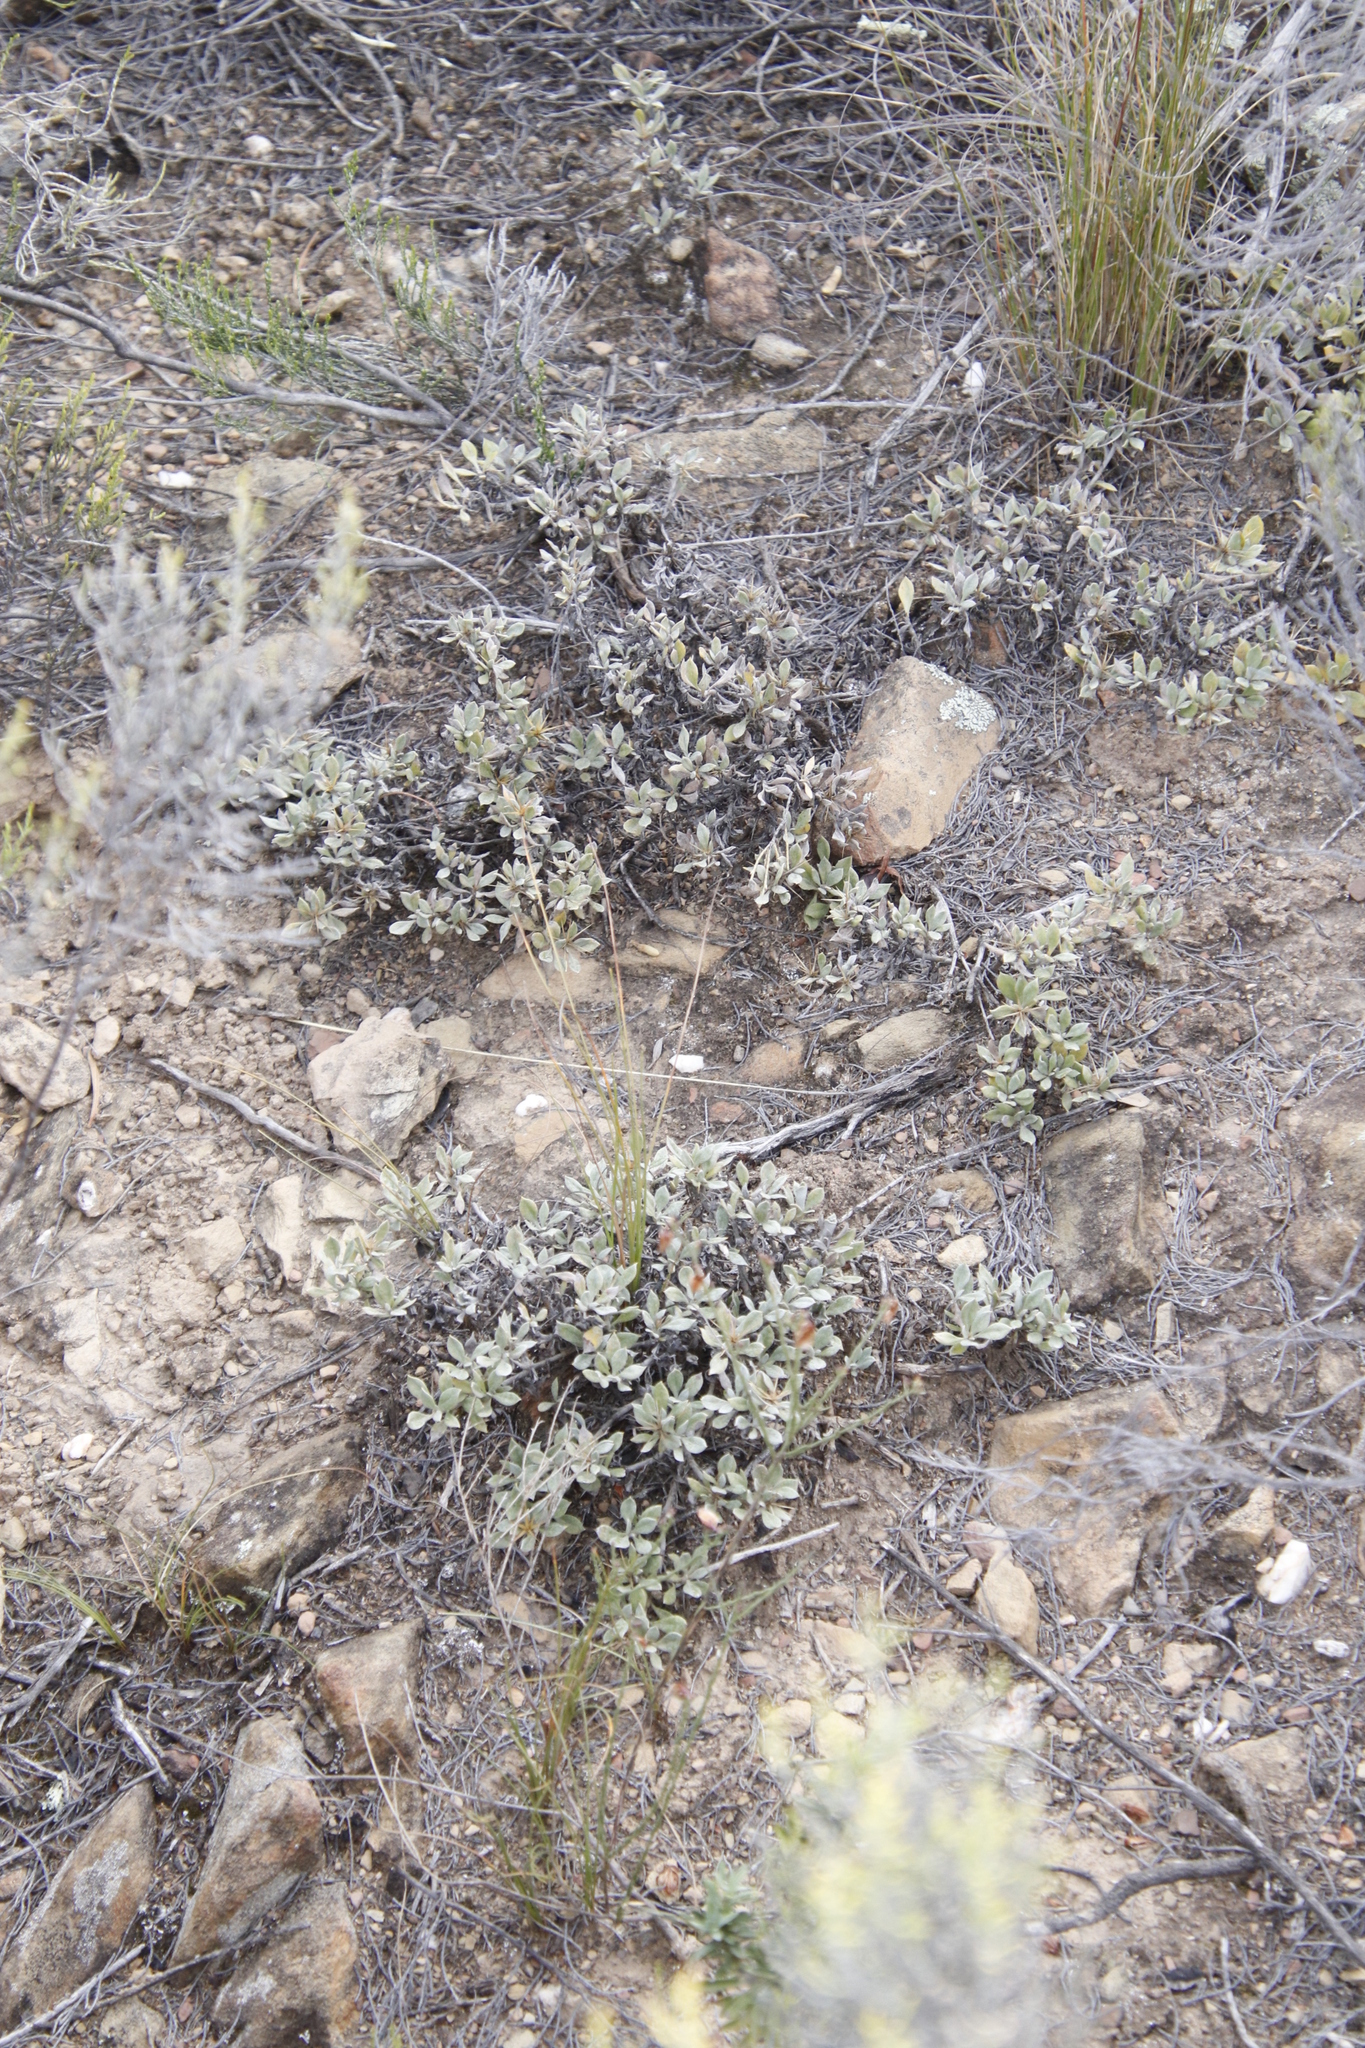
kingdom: Plantae
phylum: Tracheophyta
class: Magnoliopsida
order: Asterales
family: Asteraceae
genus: Macledium
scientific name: Macledium spinosum
